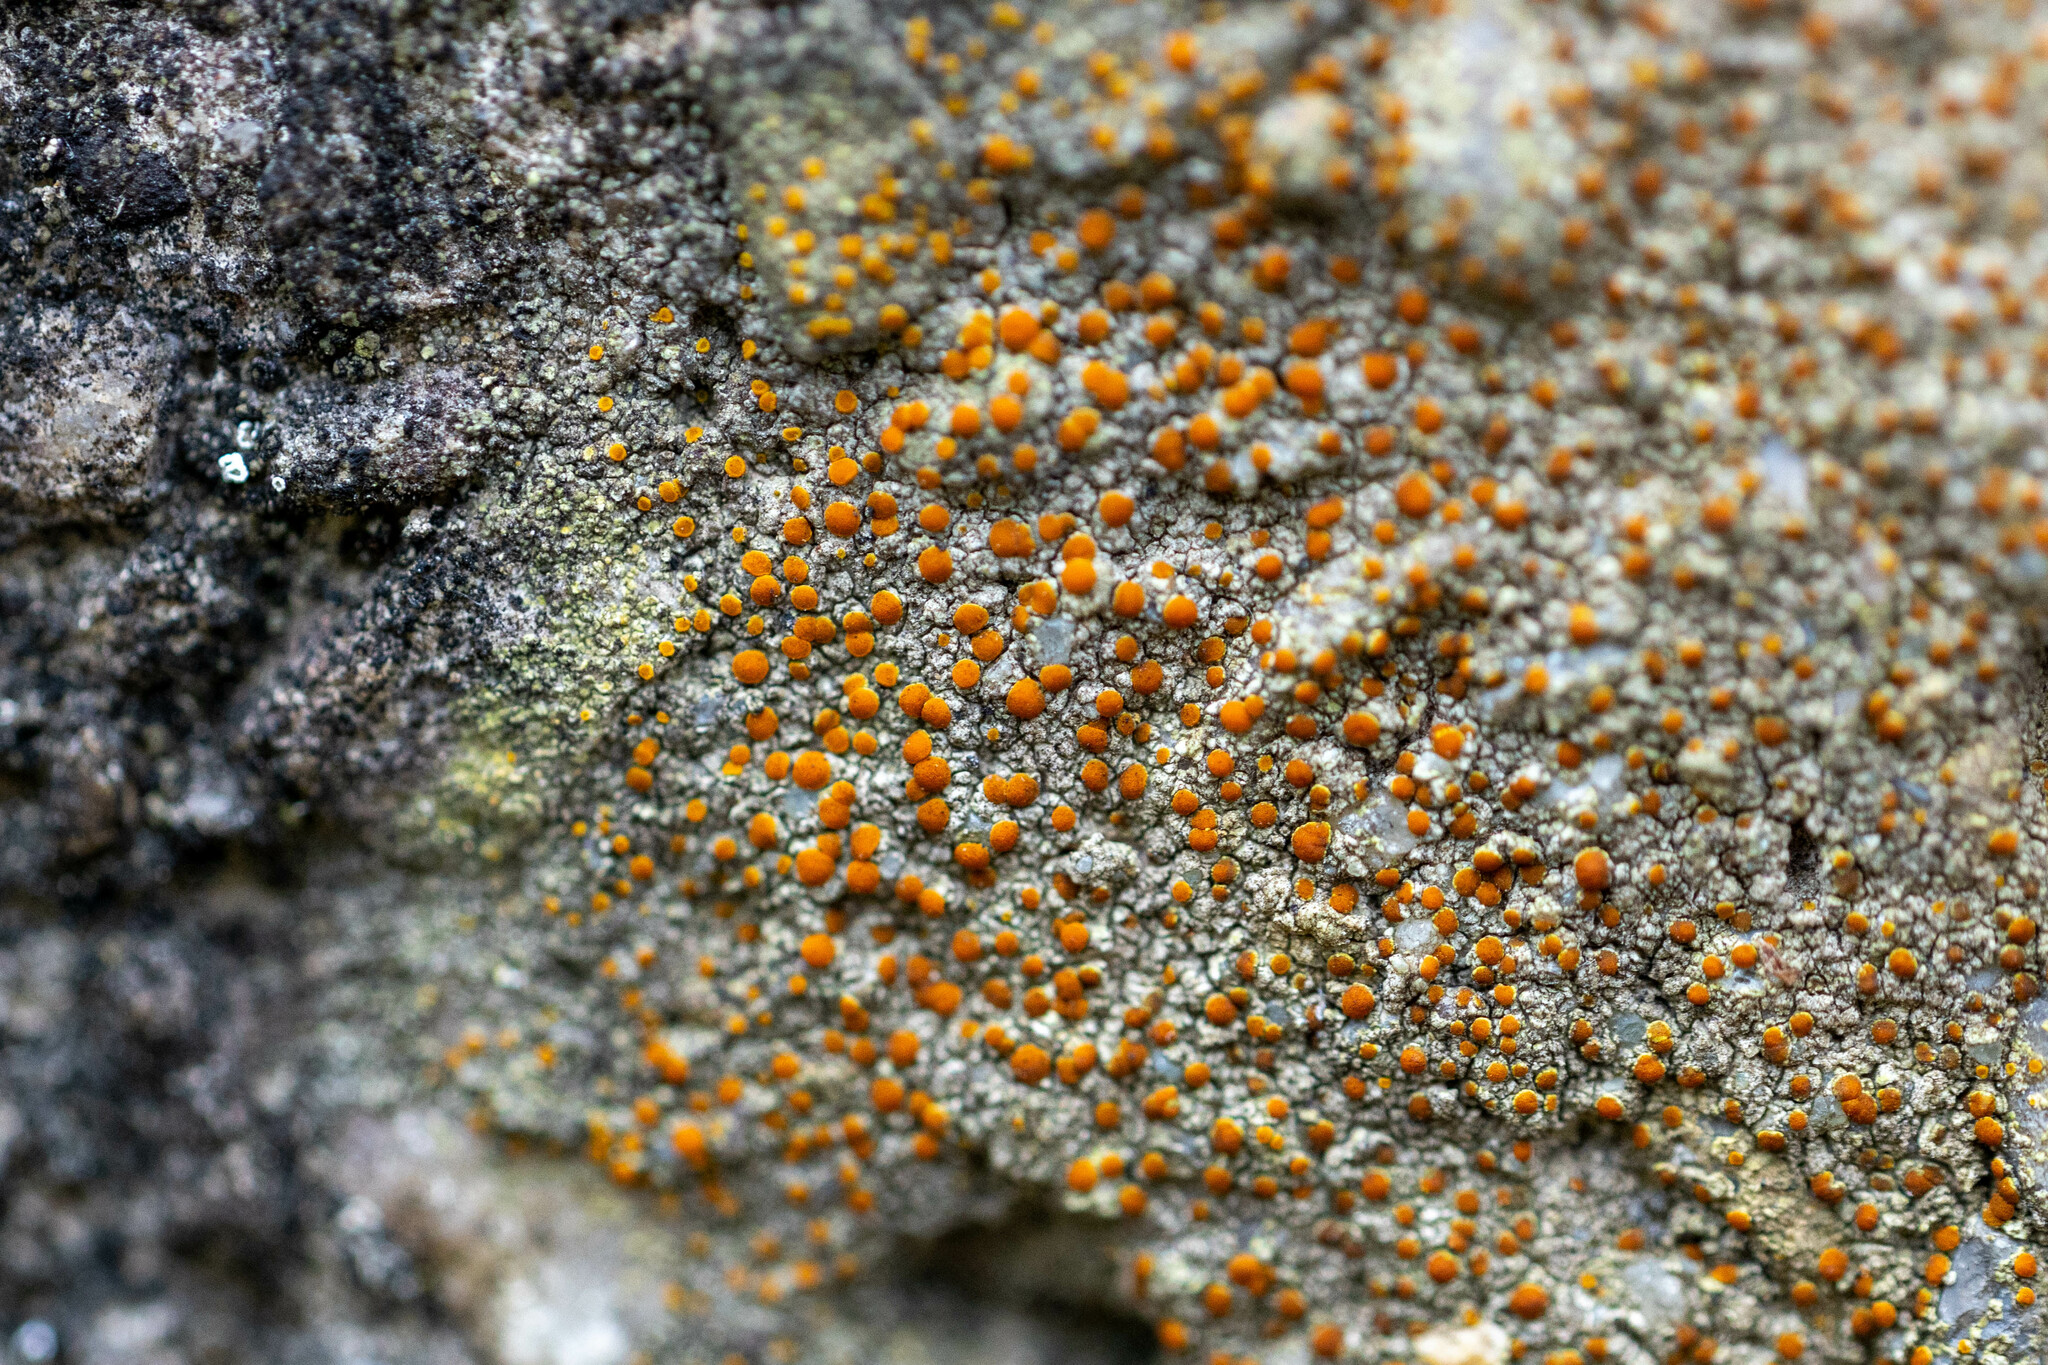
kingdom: Fungi
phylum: Ascomycota
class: Lecanoromycetes
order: Teloschistales
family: Teloschistaceae
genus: Xanthocarpia
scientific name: Xanthocarpia feracissima
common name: Sidewalk firedot
